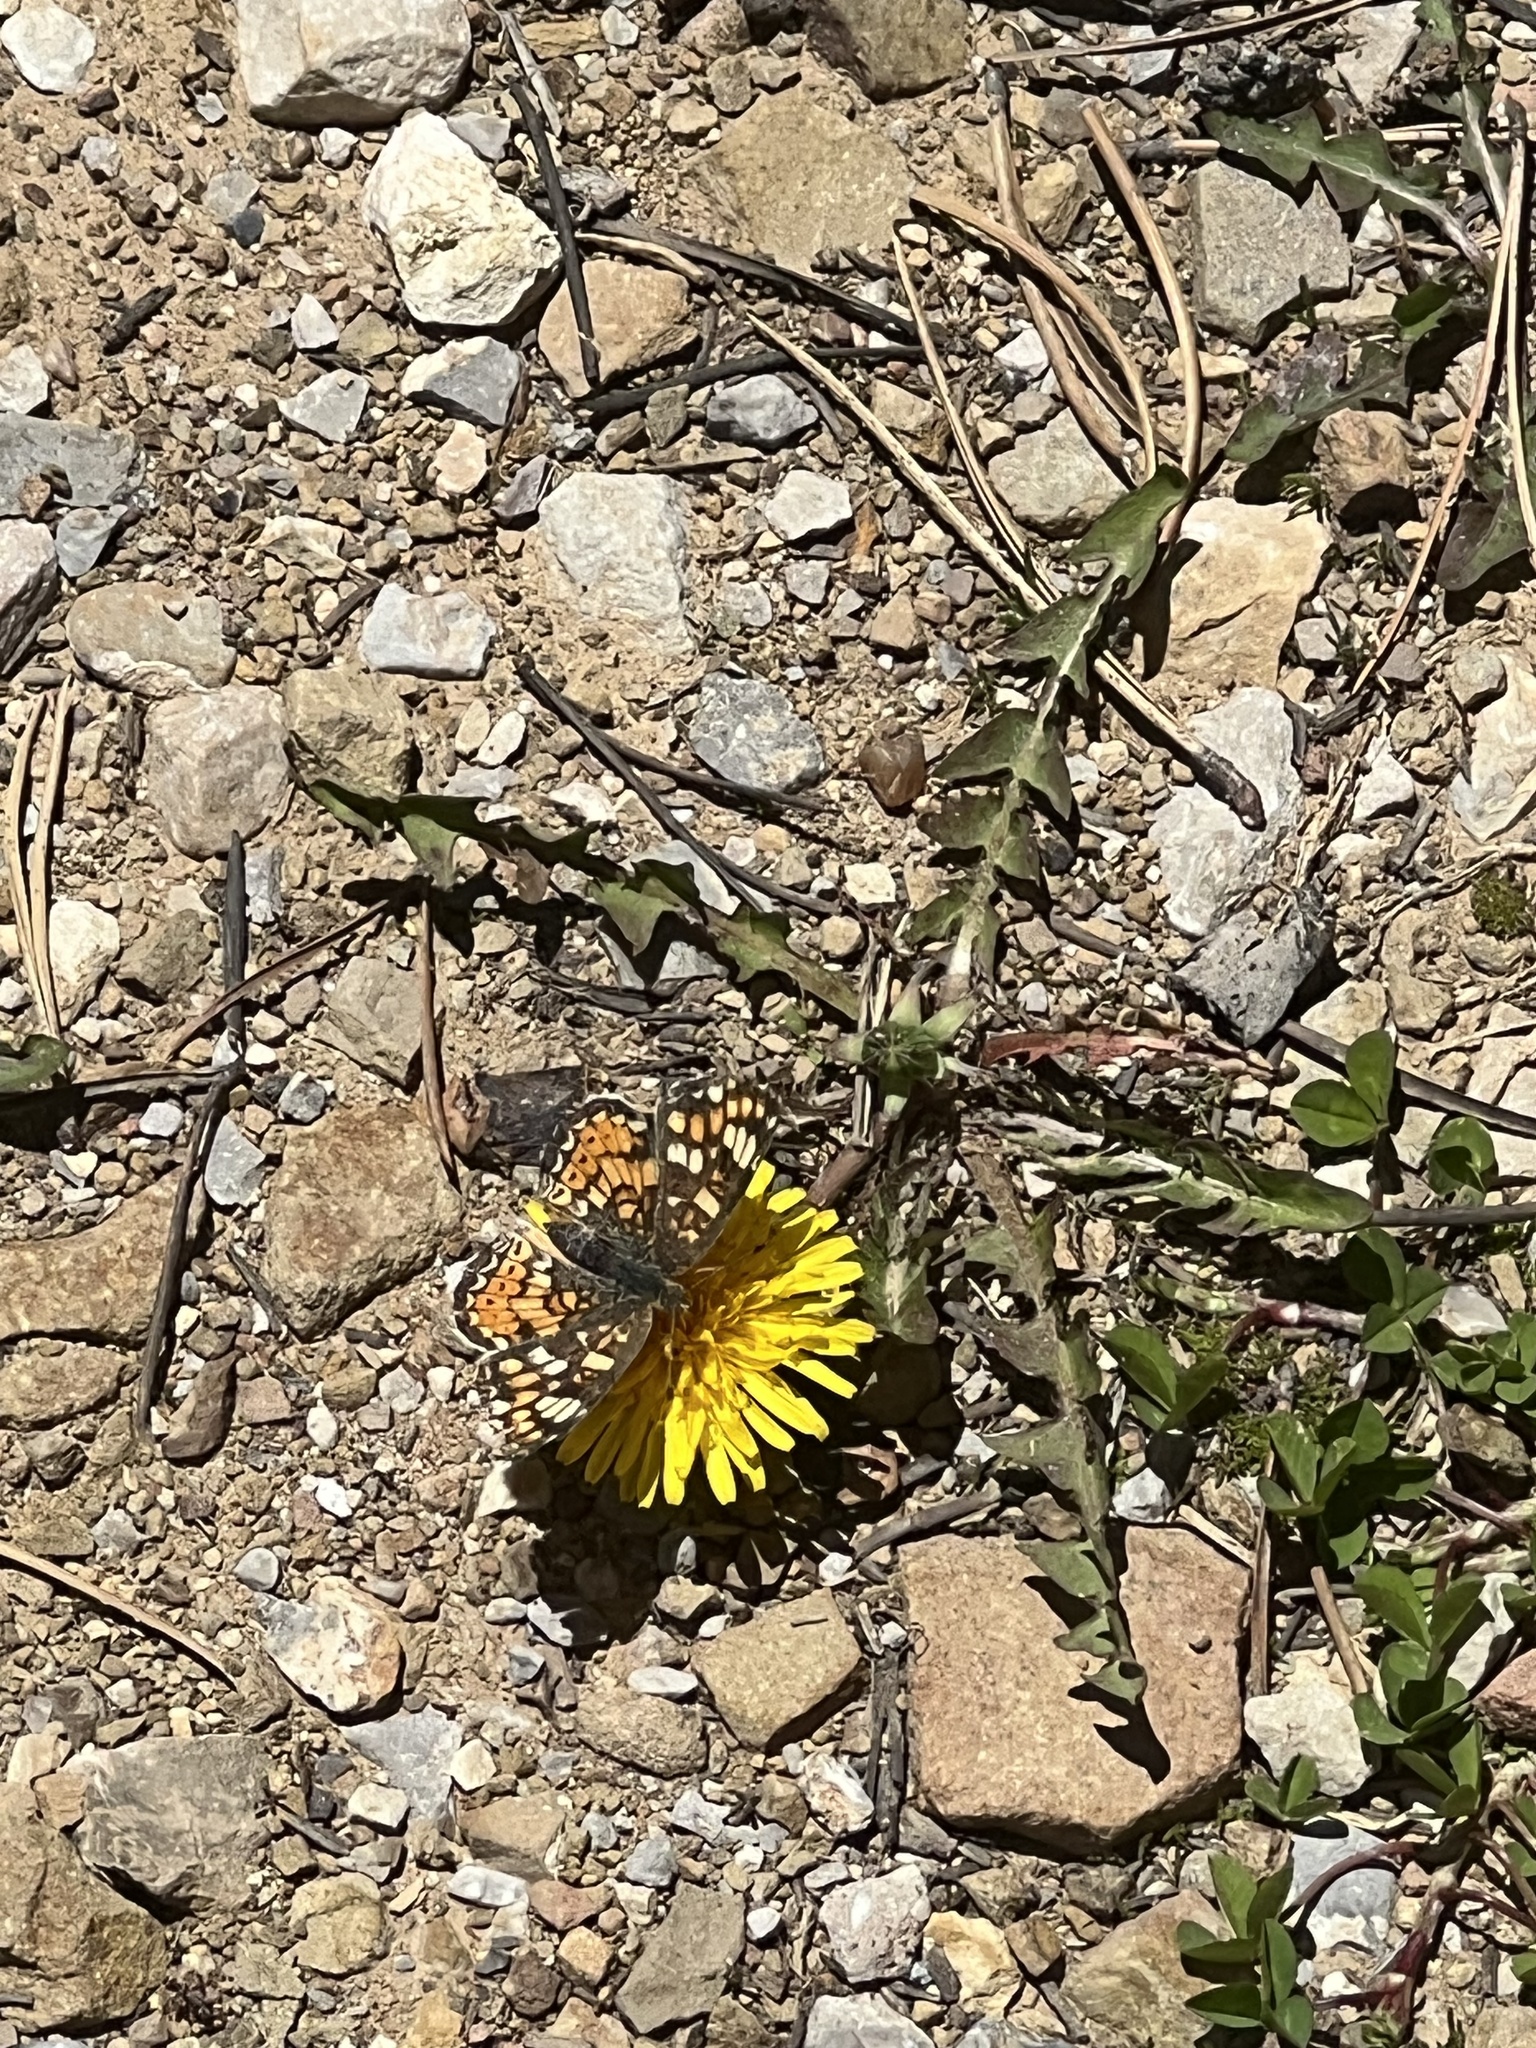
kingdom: Animalia
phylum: Arthropoda
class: Insecta
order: Lepidoptera
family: Nymphalidae
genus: Phyciodes
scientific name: Phyciodes tharos
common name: Pearl crescent
